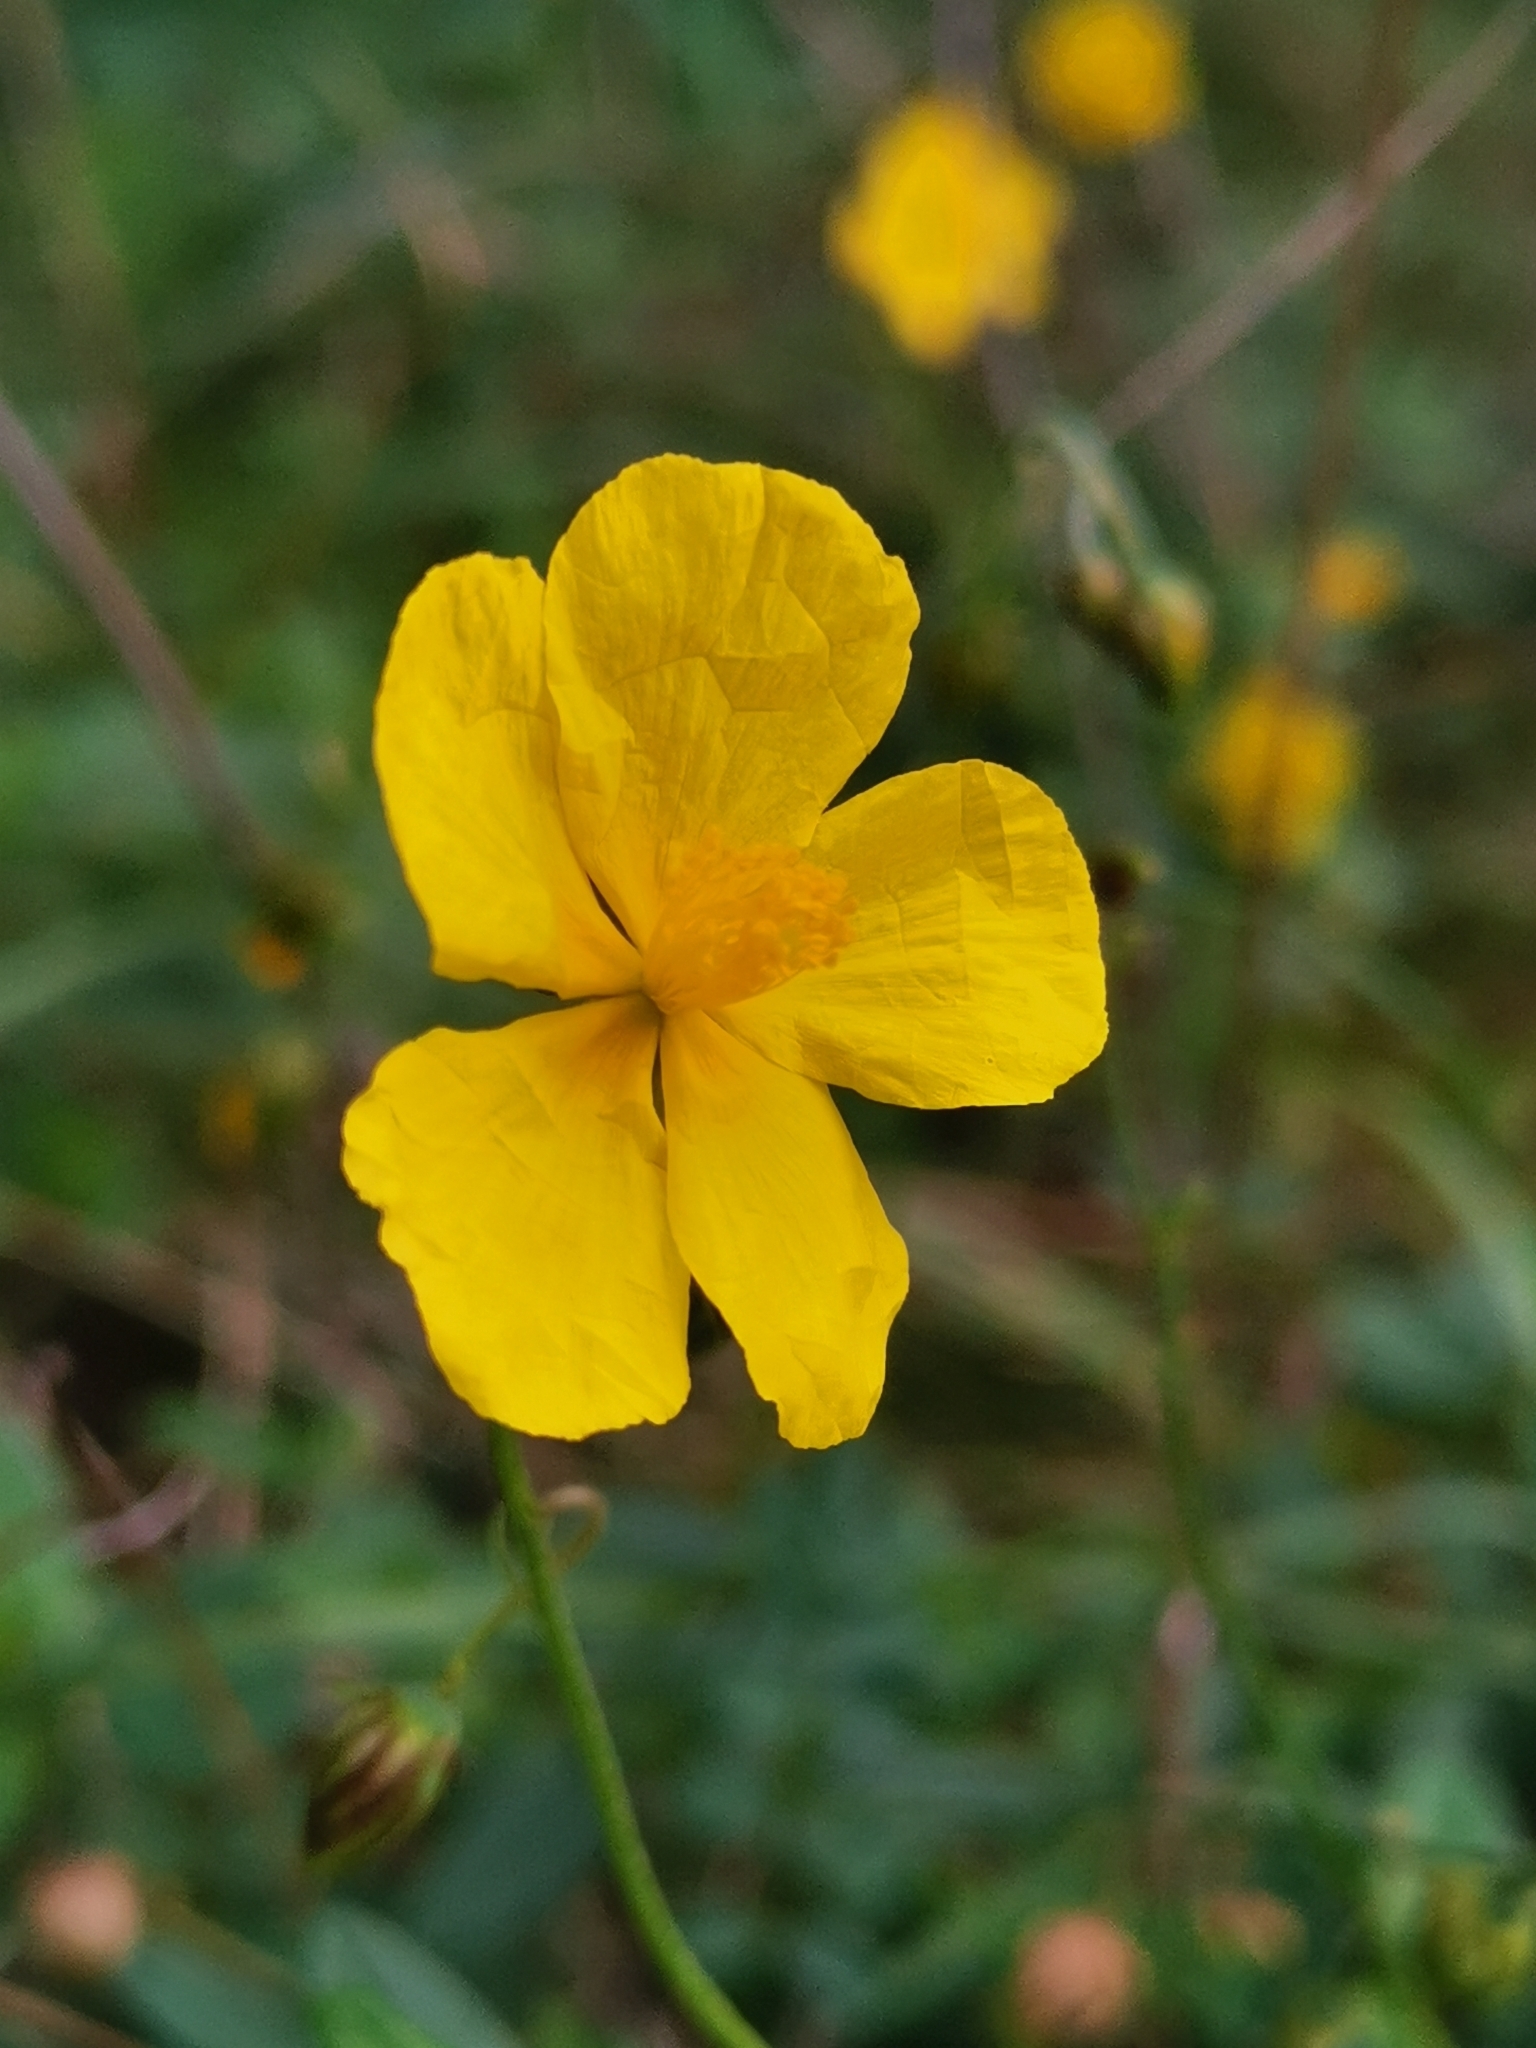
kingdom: Plantae
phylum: Tracheophyta
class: Magnoliopsida
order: Malvales
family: Cistaceae
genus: Helianthemum
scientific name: Helianthemum nummularium
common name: Common rock-rose
